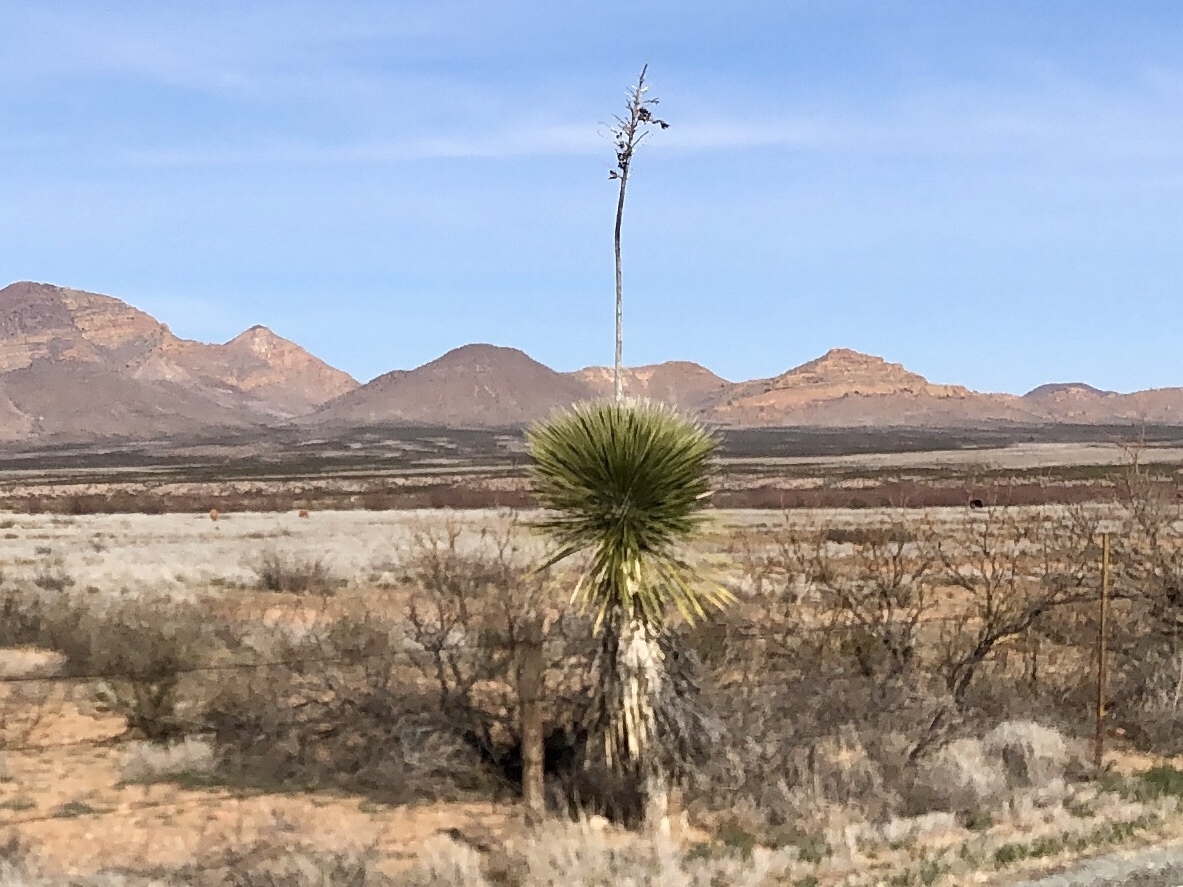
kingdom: Plantae
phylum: Tracheophyta
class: Liliopsida
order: Asparagales
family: Asparagaceae
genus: Yucca
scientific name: Yucca elata
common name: Palmella
